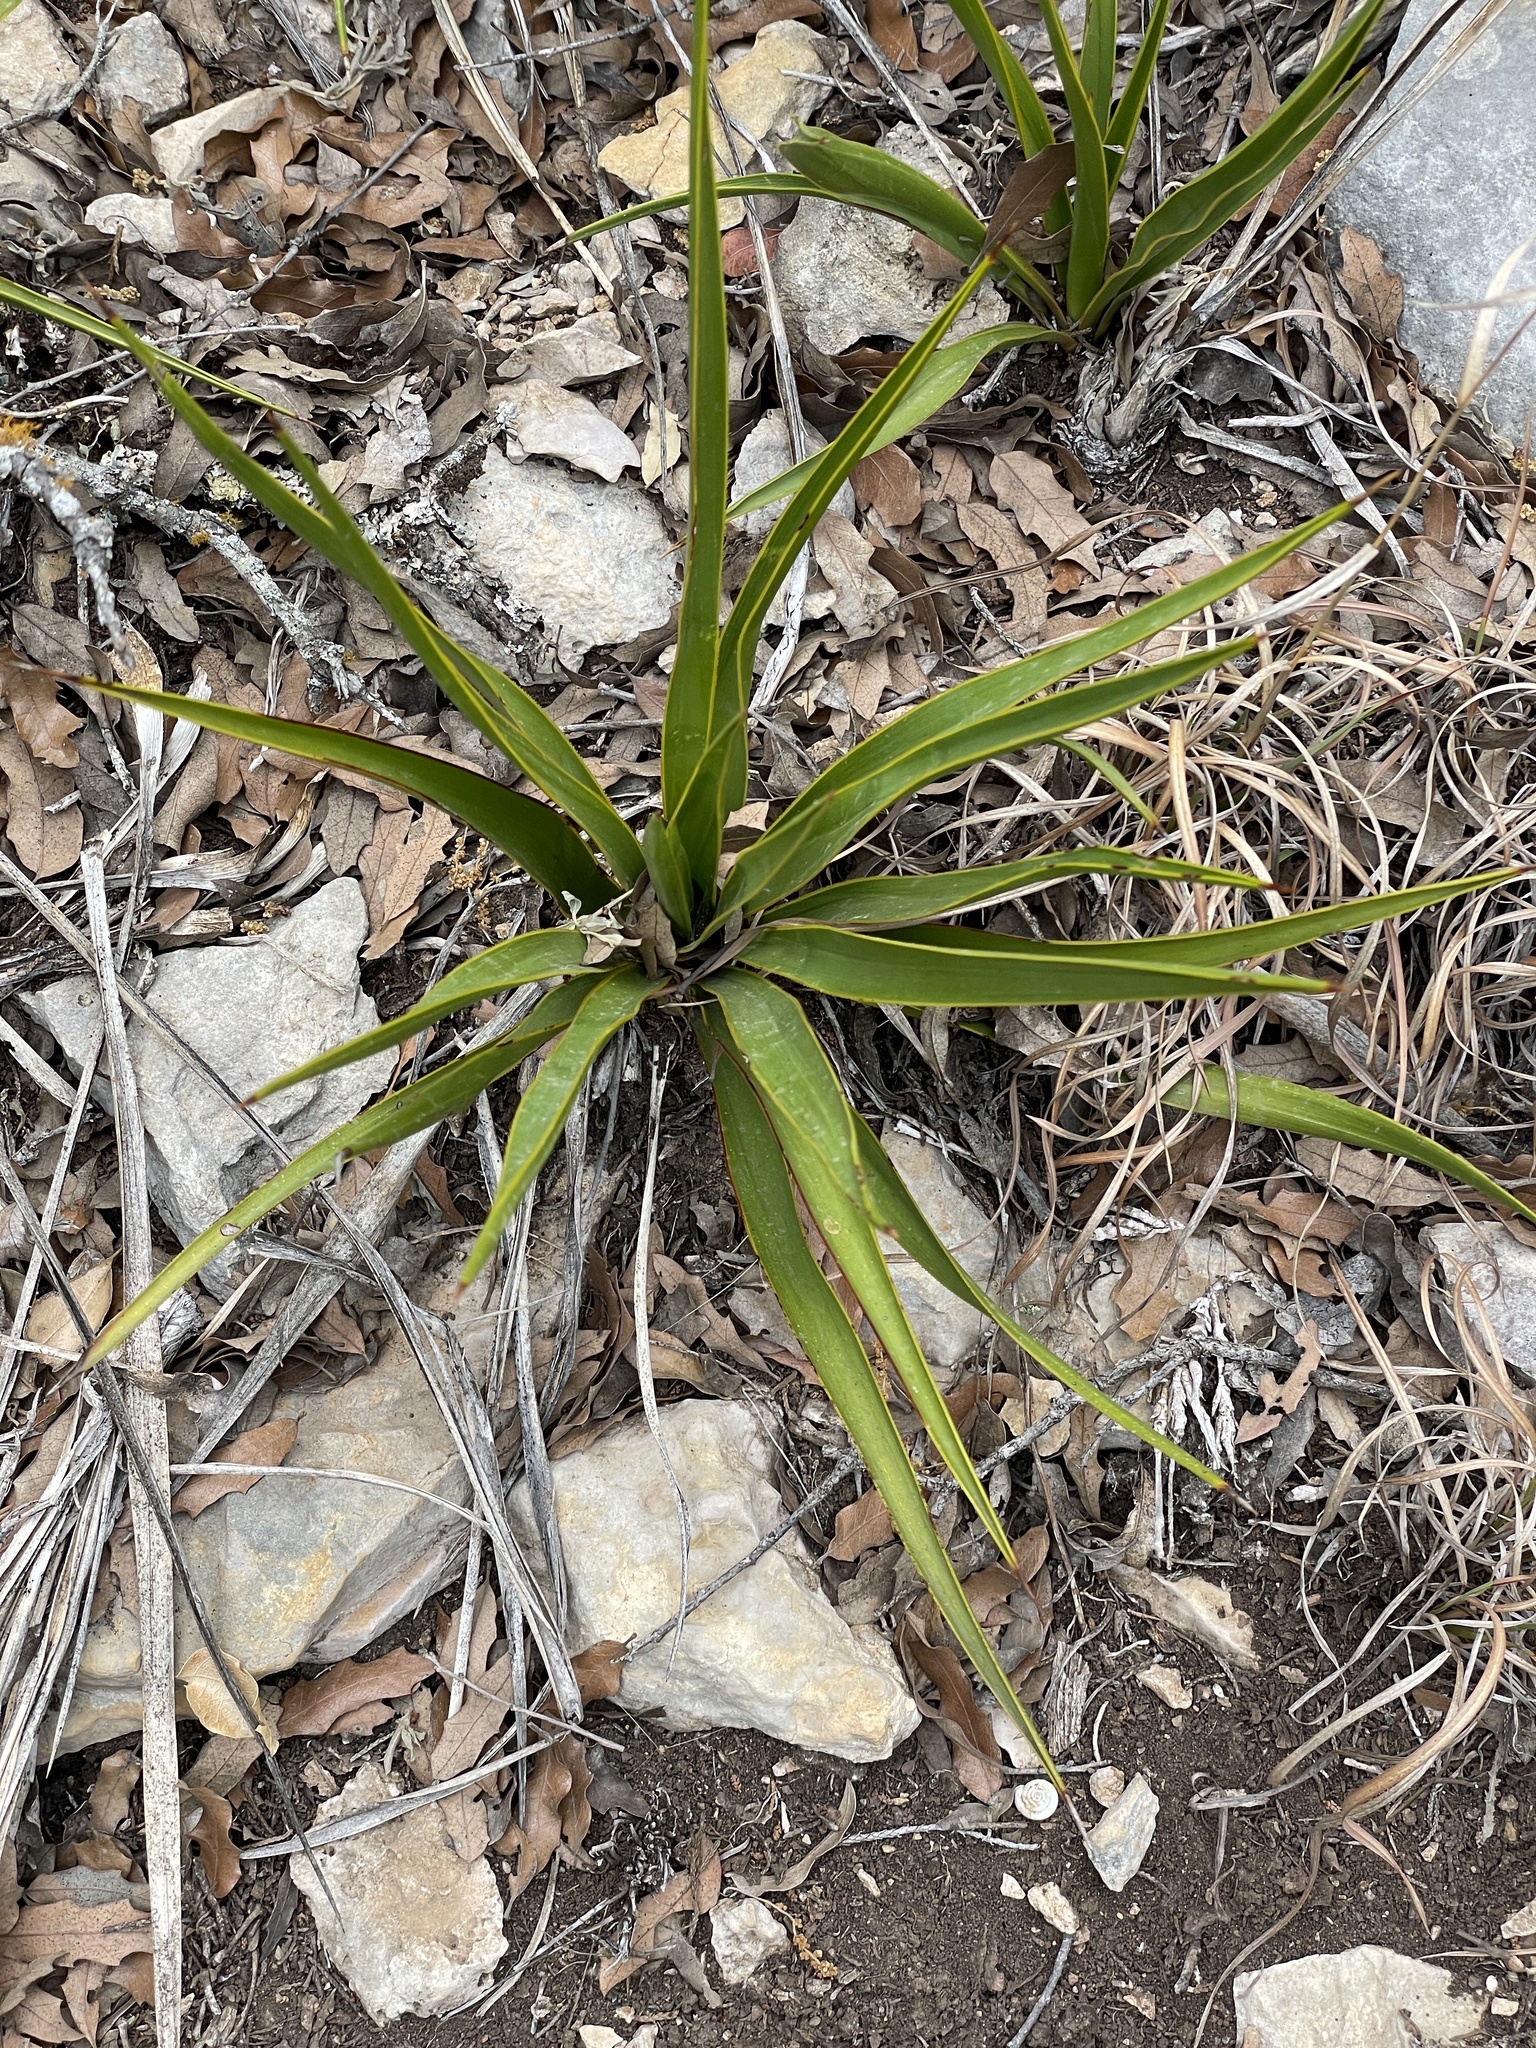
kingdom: Plantae
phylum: Tracheophyta
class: Liliopsida
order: Asparagales
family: Asparagaceae
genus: Yucca
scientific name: Yucca rupicola
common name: Twisted-leaf spanish-dagger
